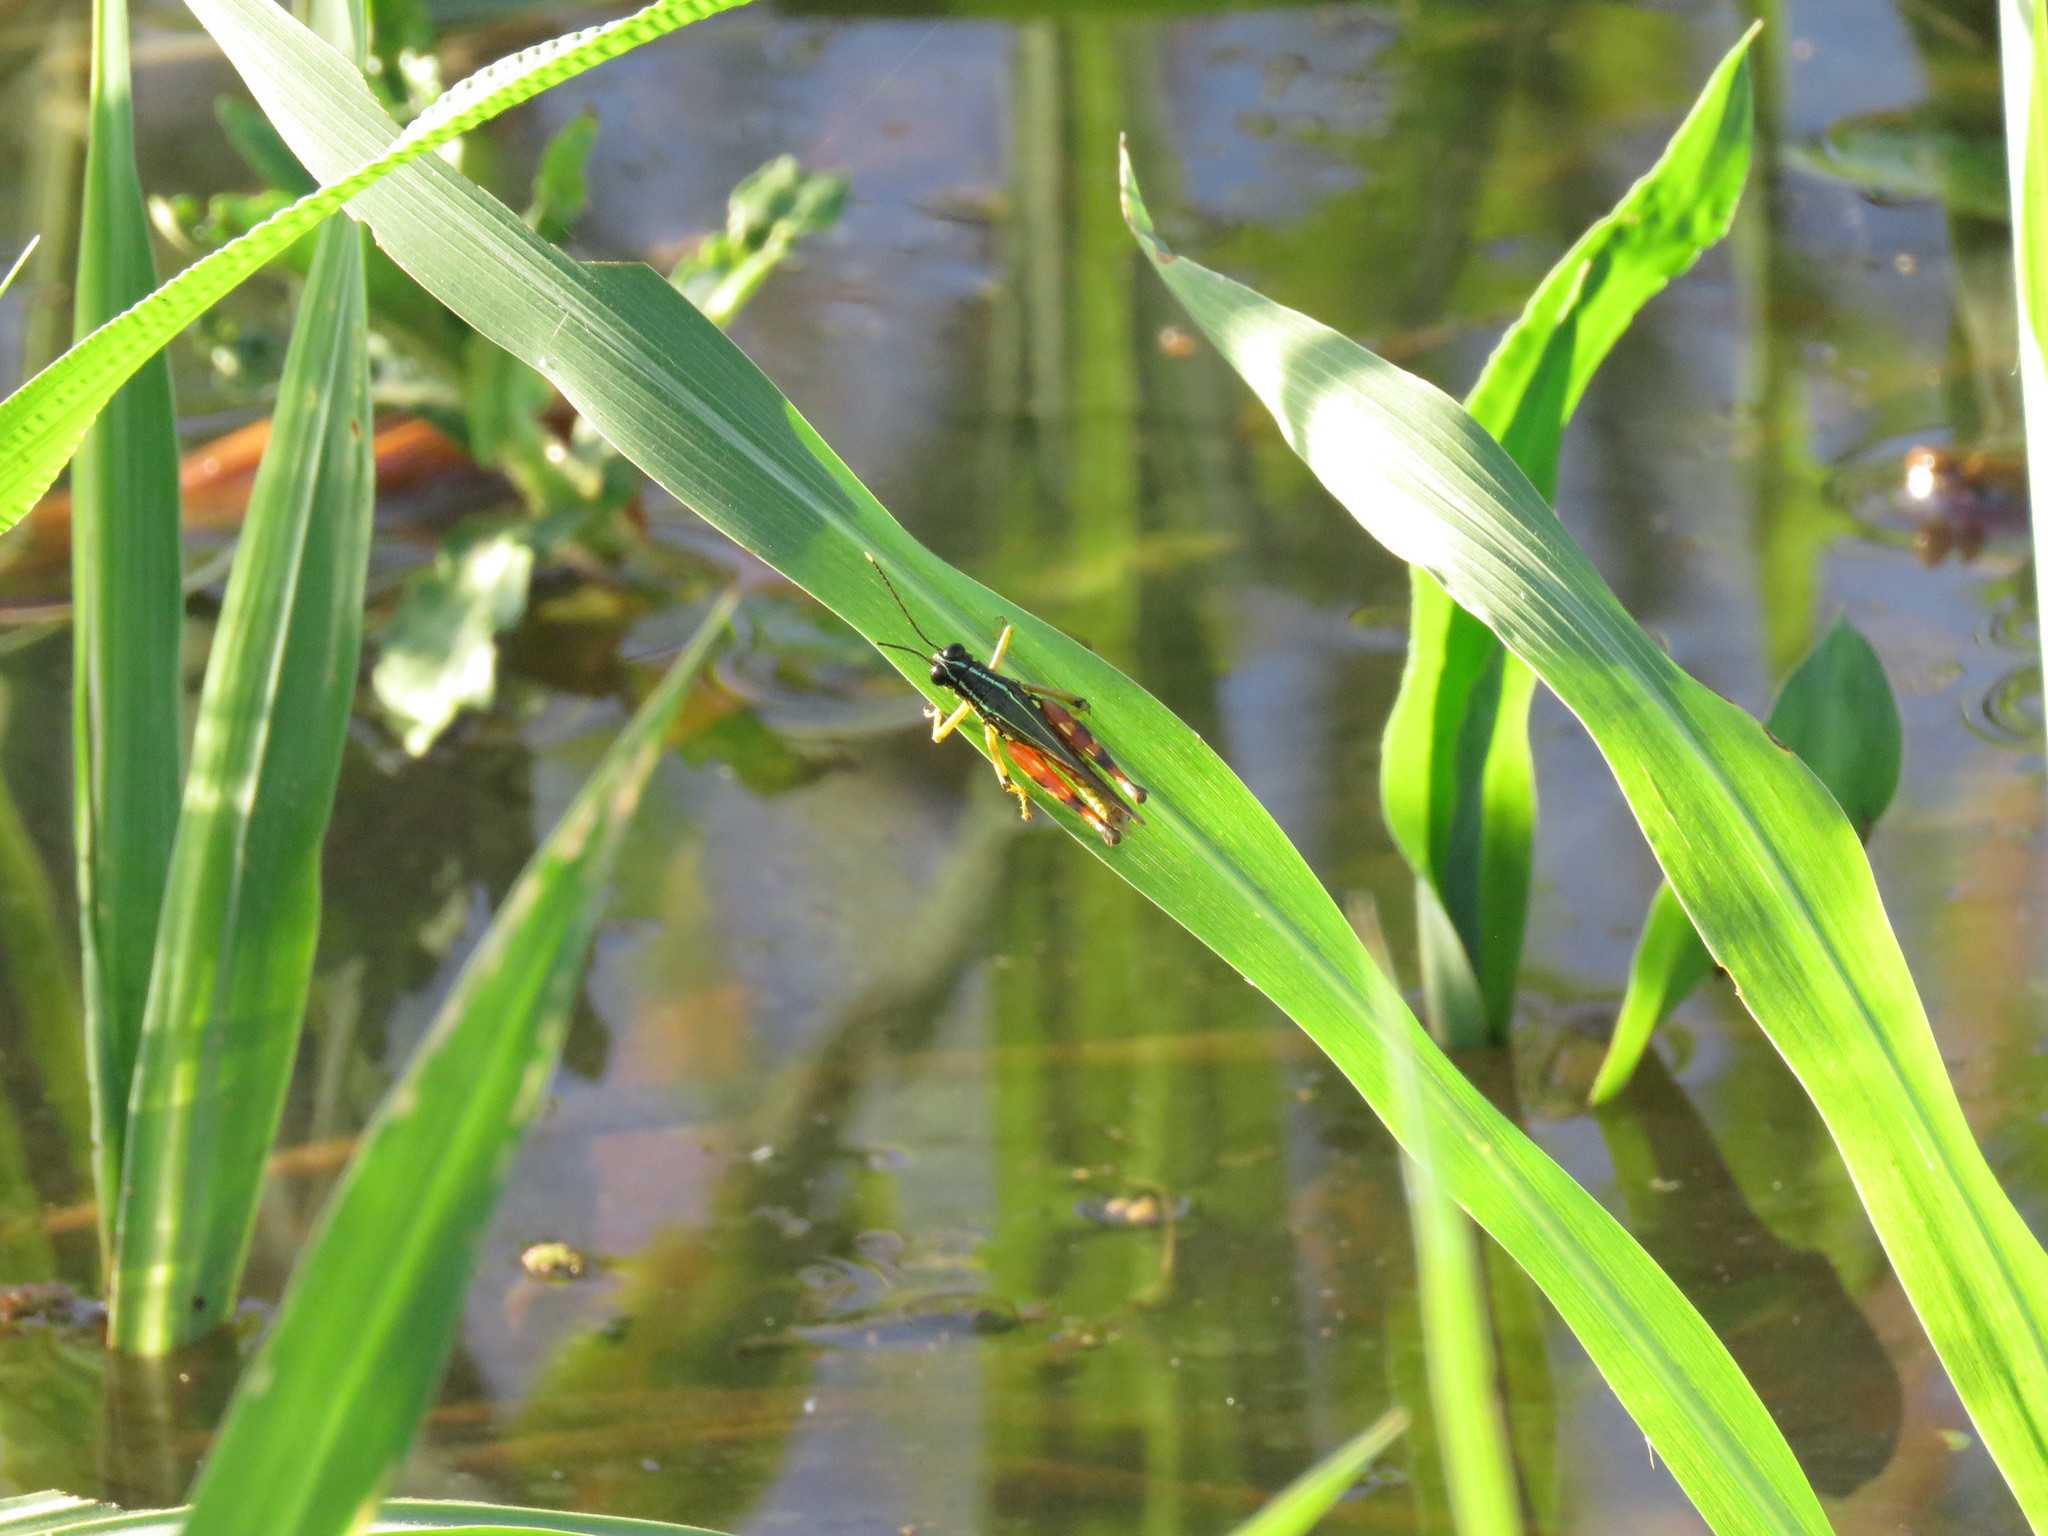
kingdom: Animalia
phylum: Arthropoda
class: Insecta
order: Orthoptera
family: Acrididae
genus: Tetrataenia
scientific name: Tetrataenia surinama
